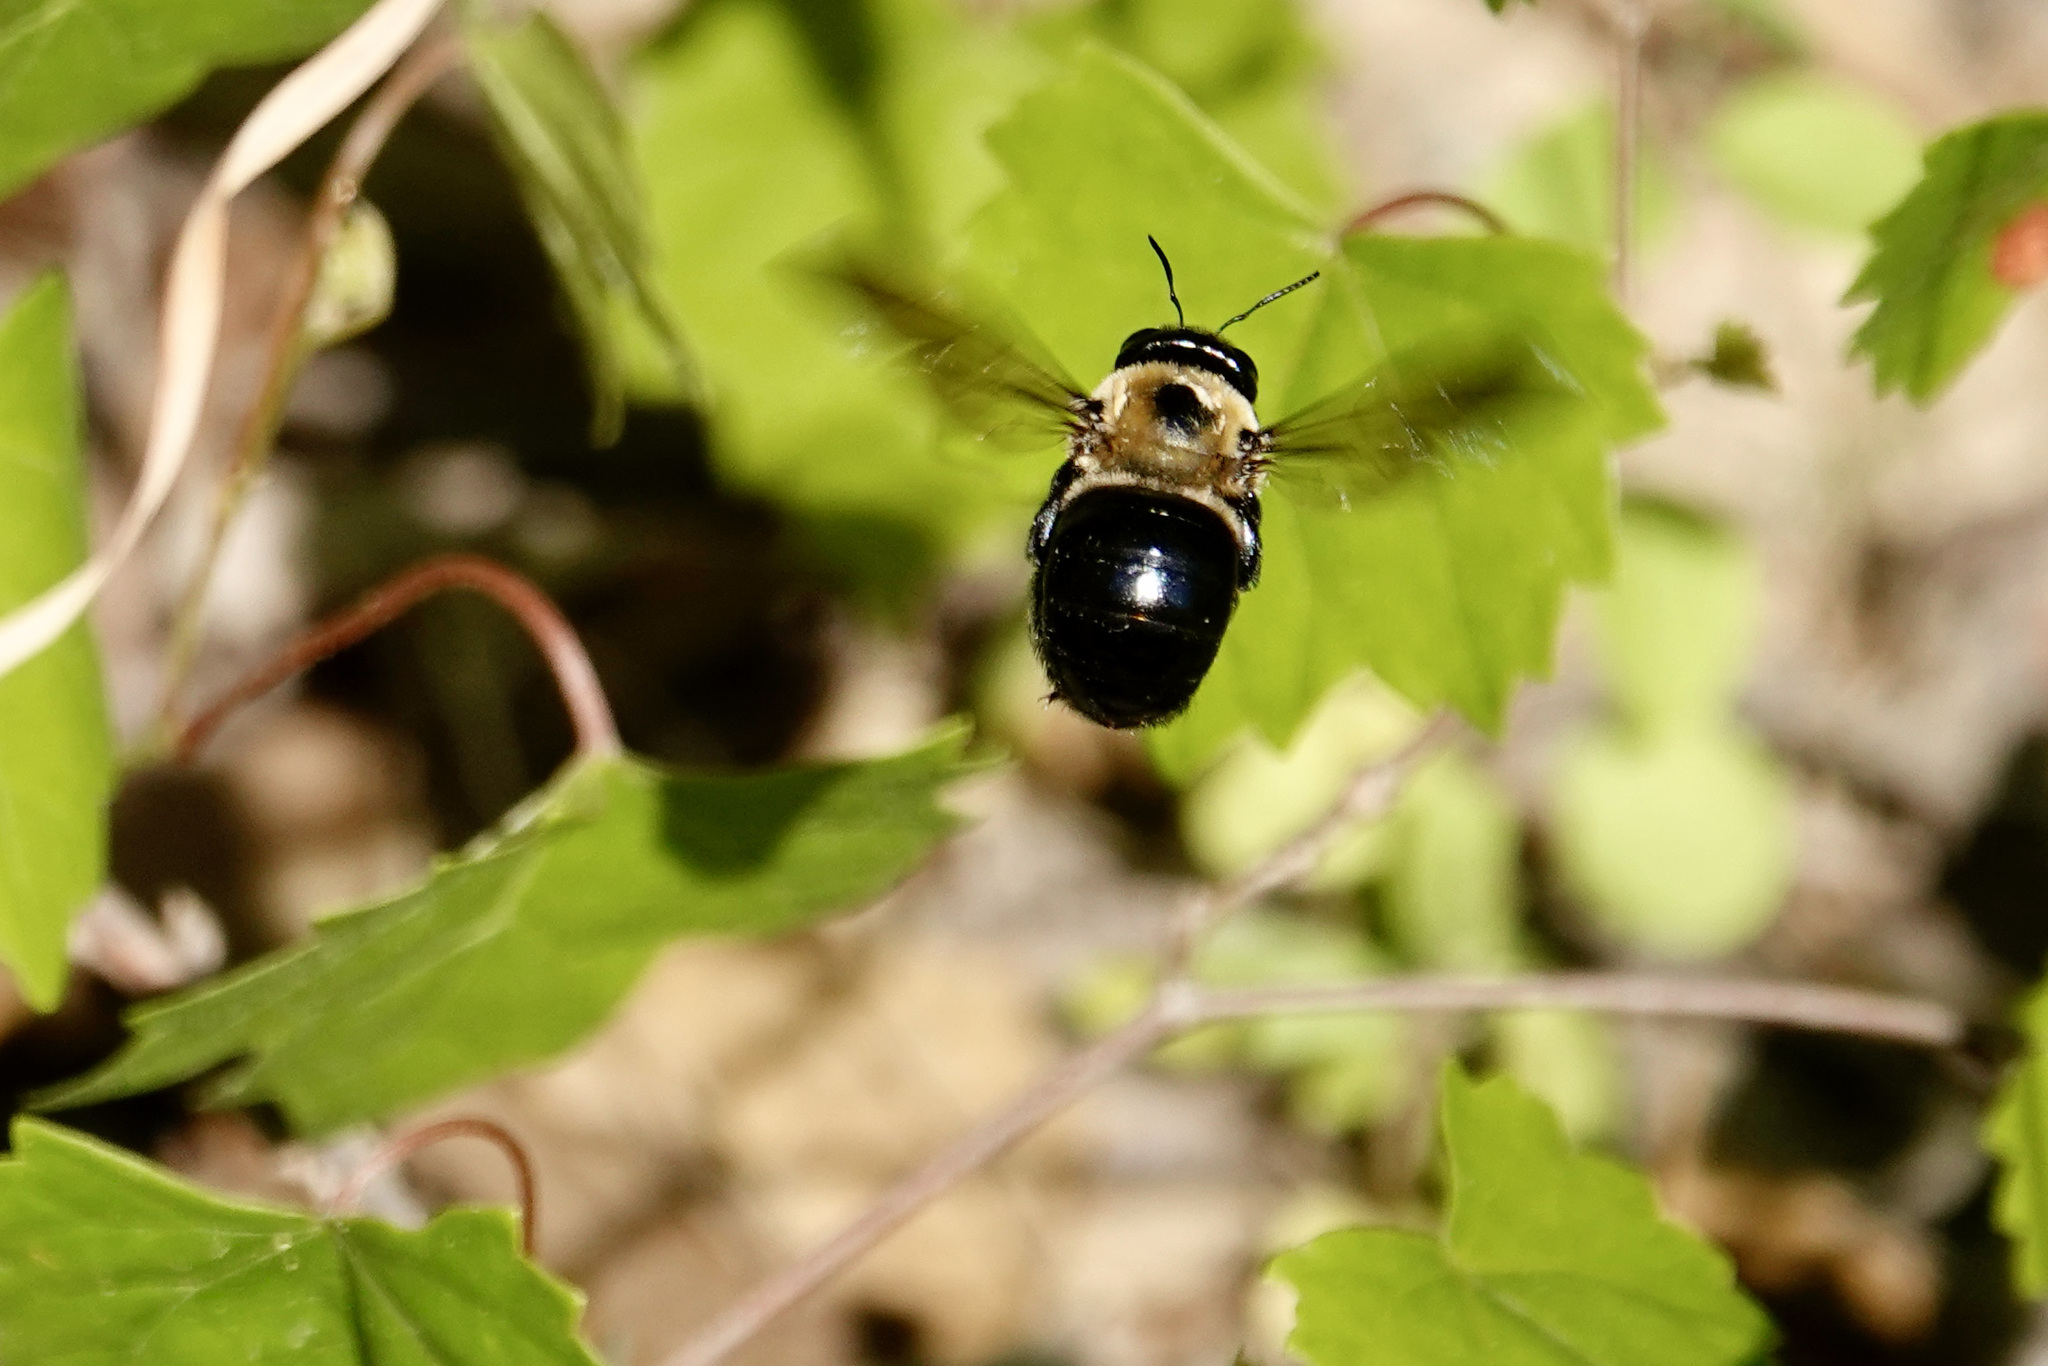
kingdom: Animalia
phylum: Arthropoda
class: Insecta
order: Hymenoptera
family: Apidae
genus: Xylocopa
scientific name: Xylocopa virginica
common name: Carpenter bee
